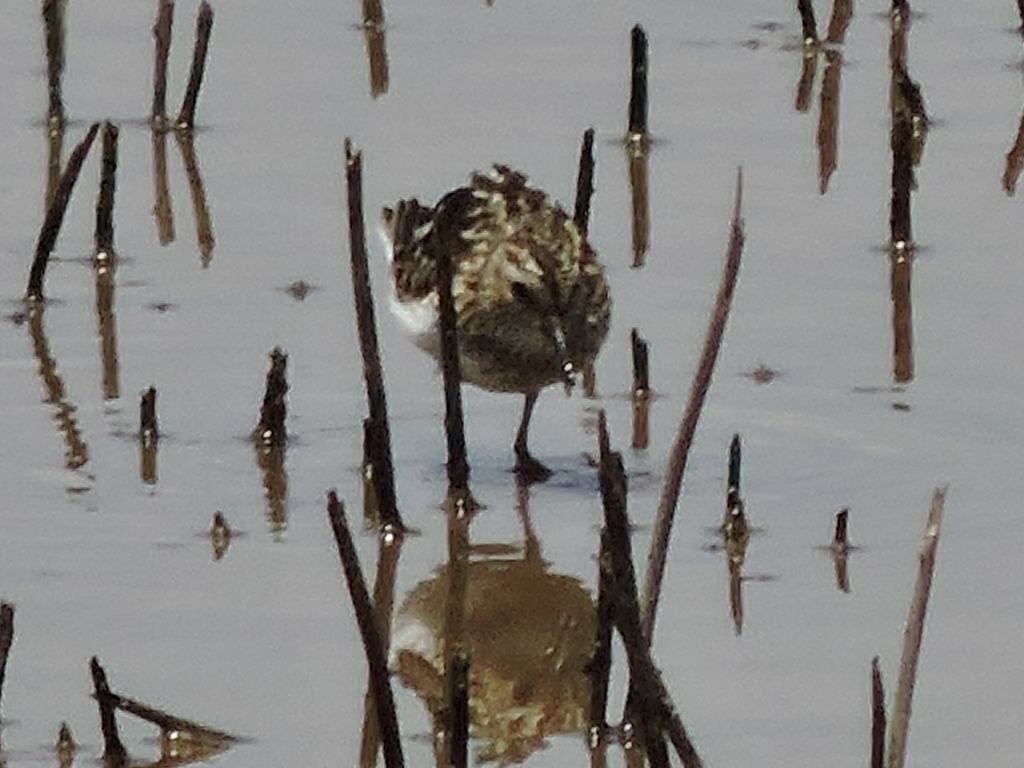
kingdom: Animalia
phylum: Chordata
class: Aves
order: Charadriiformes
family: Scolopacidae
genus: Calidris
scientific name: Calidris minutilla
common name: Least sandpiper
